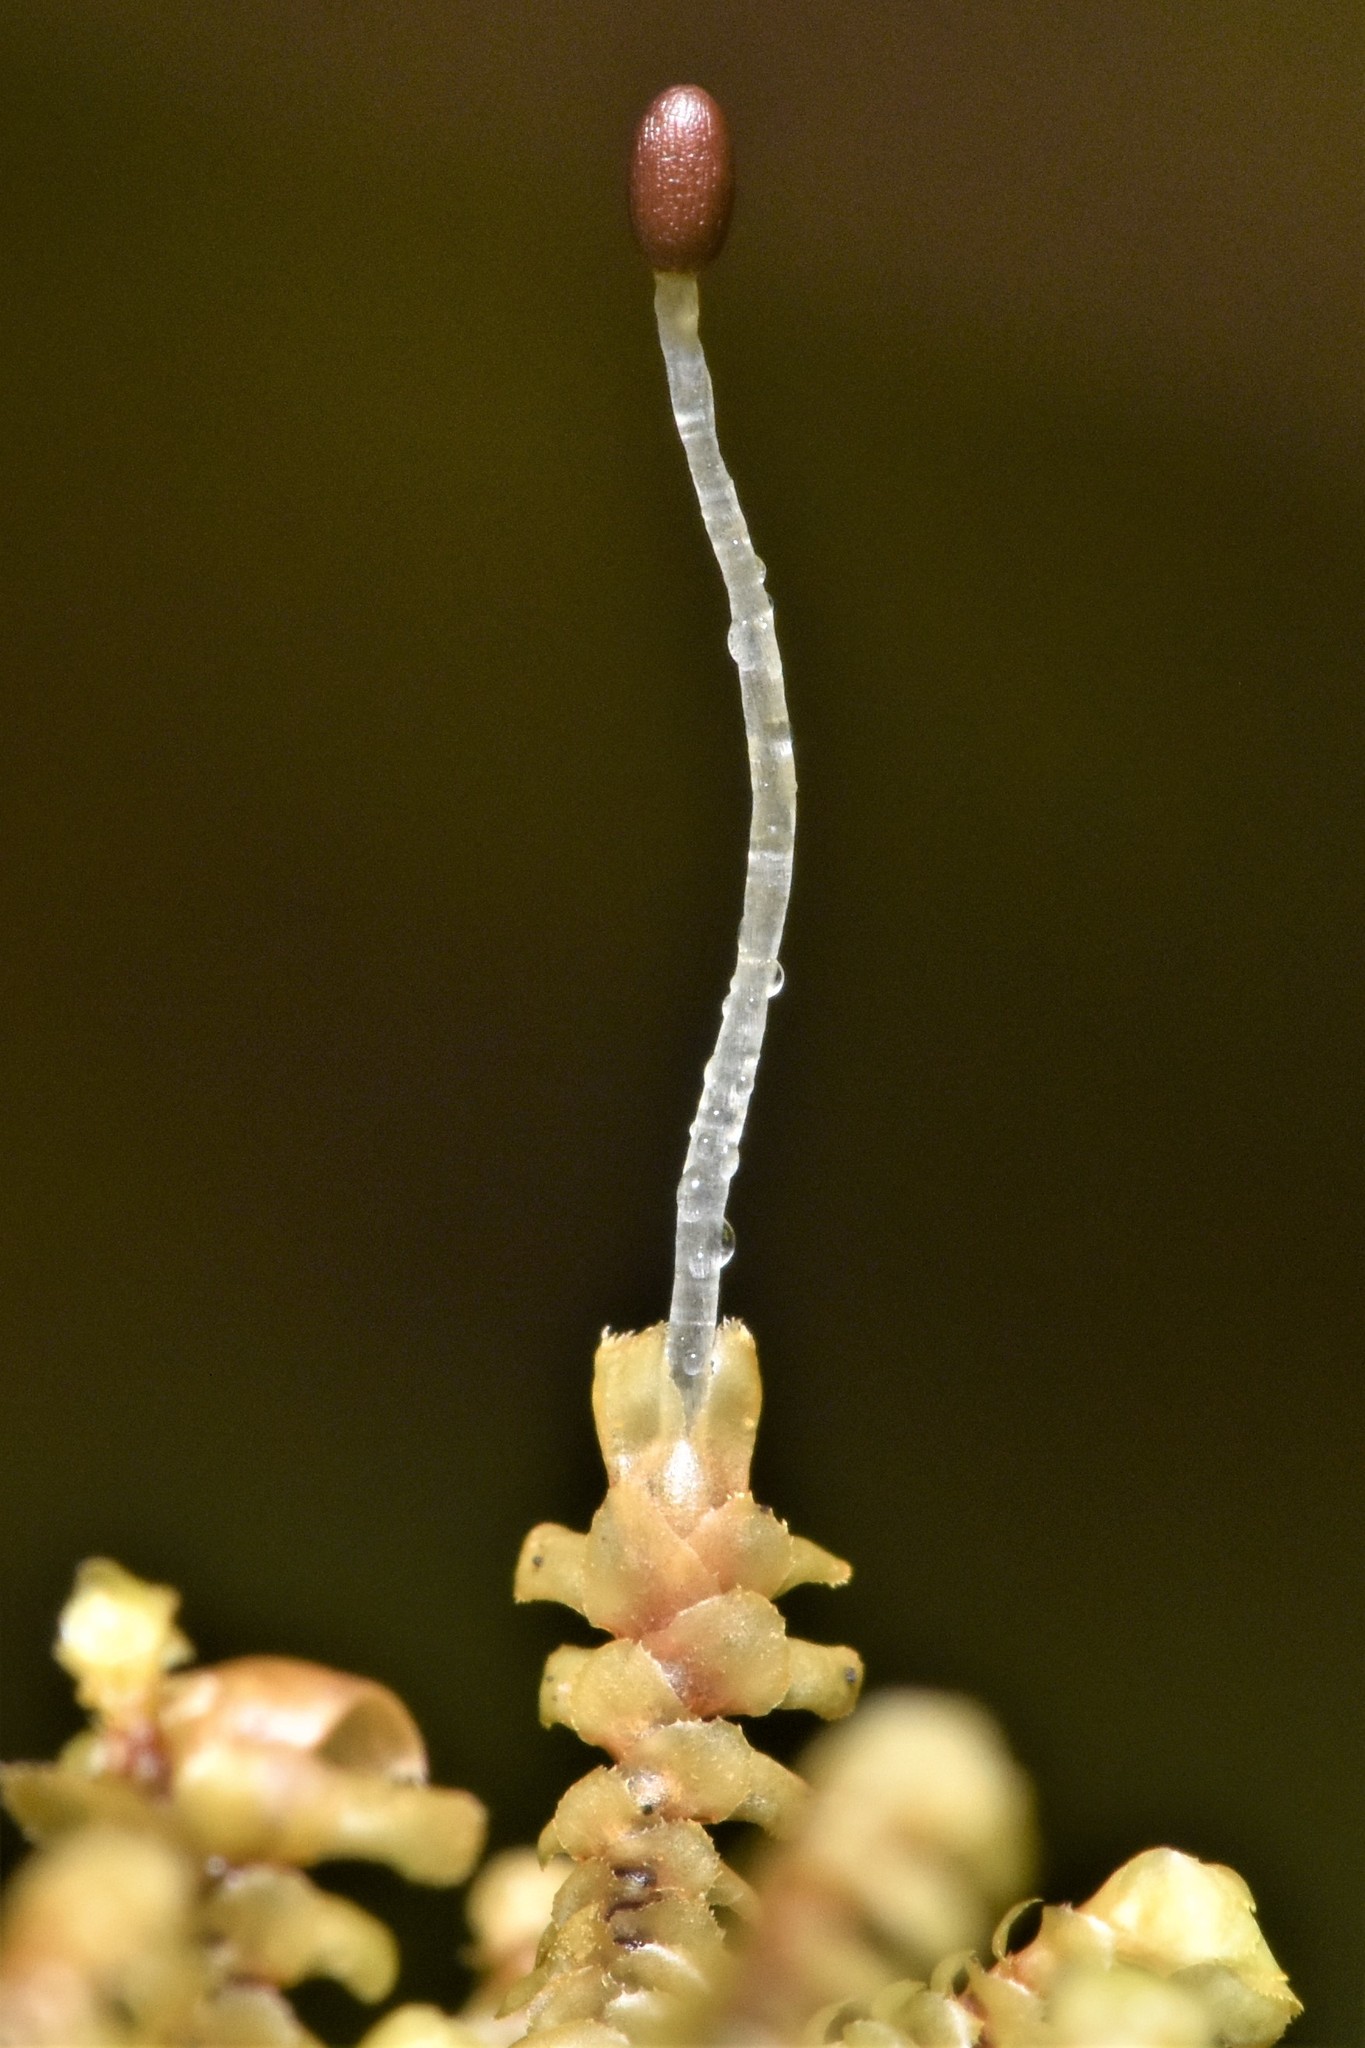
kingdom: Plantae
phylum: Marchantiophyta
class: Jungermanniopsida
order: Jungermanniales
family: Scapaniaceae
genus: Scapania
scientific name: Scapania bolanderi
